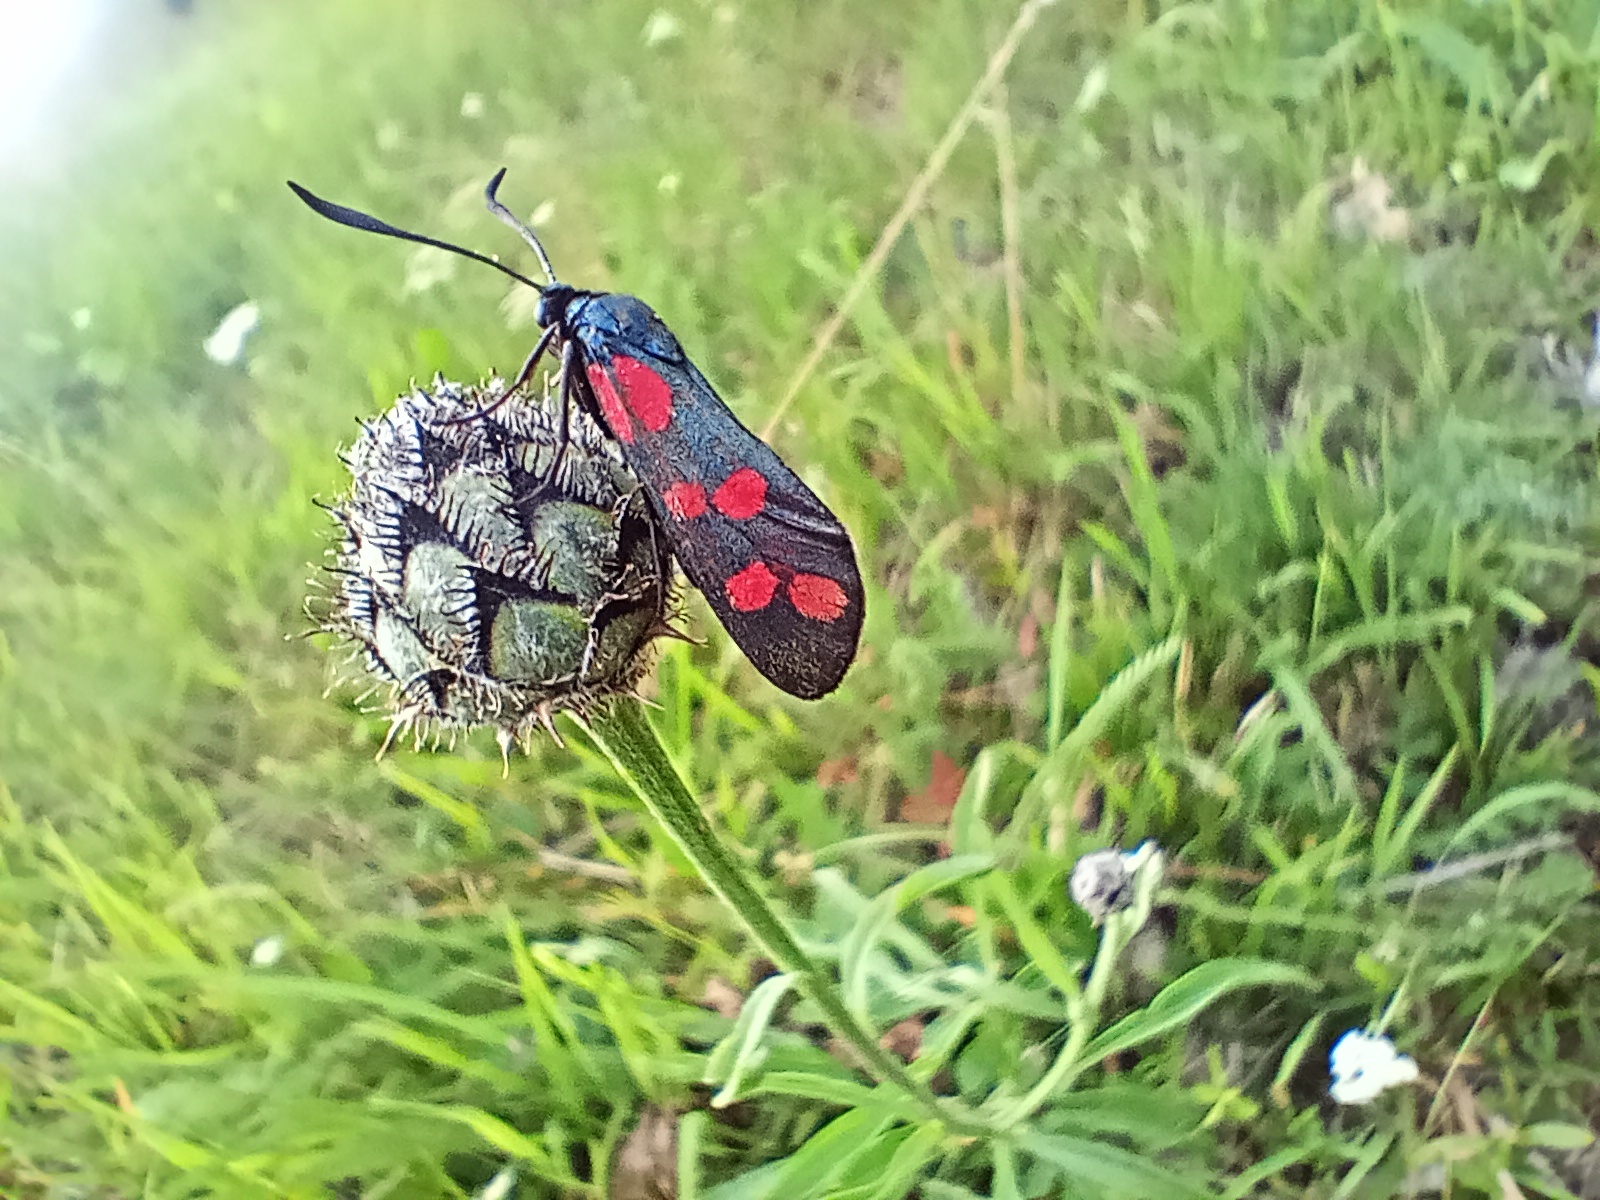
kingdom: Animalia
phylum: Arthropoda
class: Insecta
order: Lepidoptera
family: Zygaenidae
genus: Zygaena
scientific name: Zygaena filipendulae
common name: Six-spot burnet
